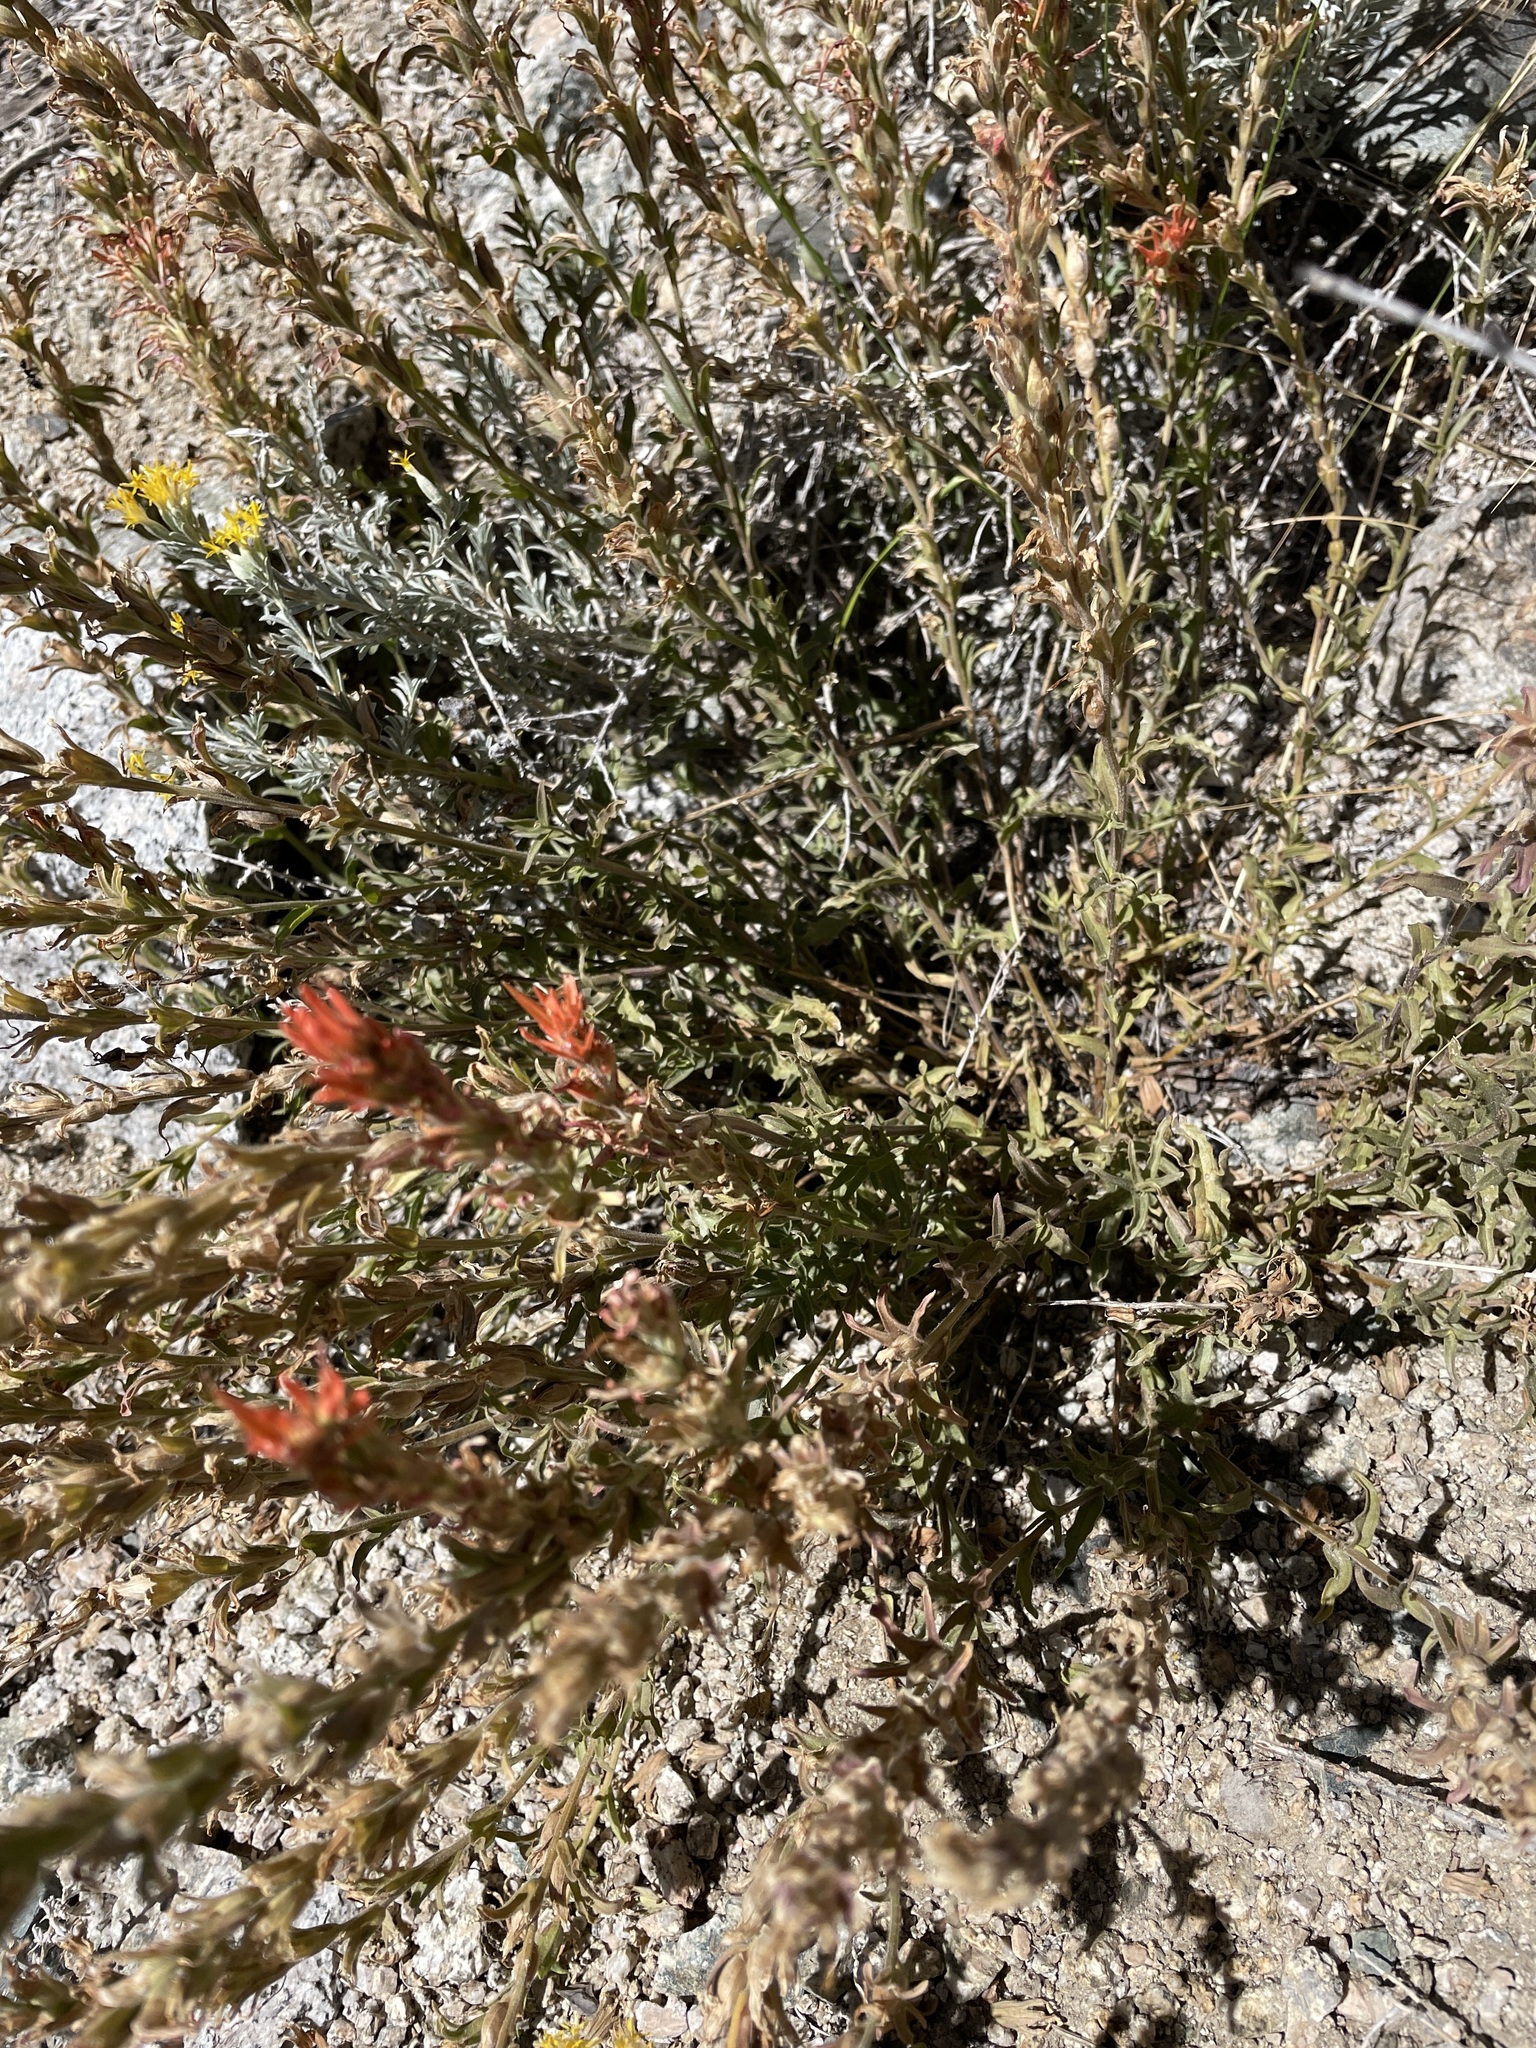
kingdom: Plantae
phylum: Tracheophyta
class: Magnoliopsida
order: Lamiales
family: Orobanchaceae
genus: Castilleja
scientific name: Castilleja applegatei
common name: Wavy-leaf paintbrush
